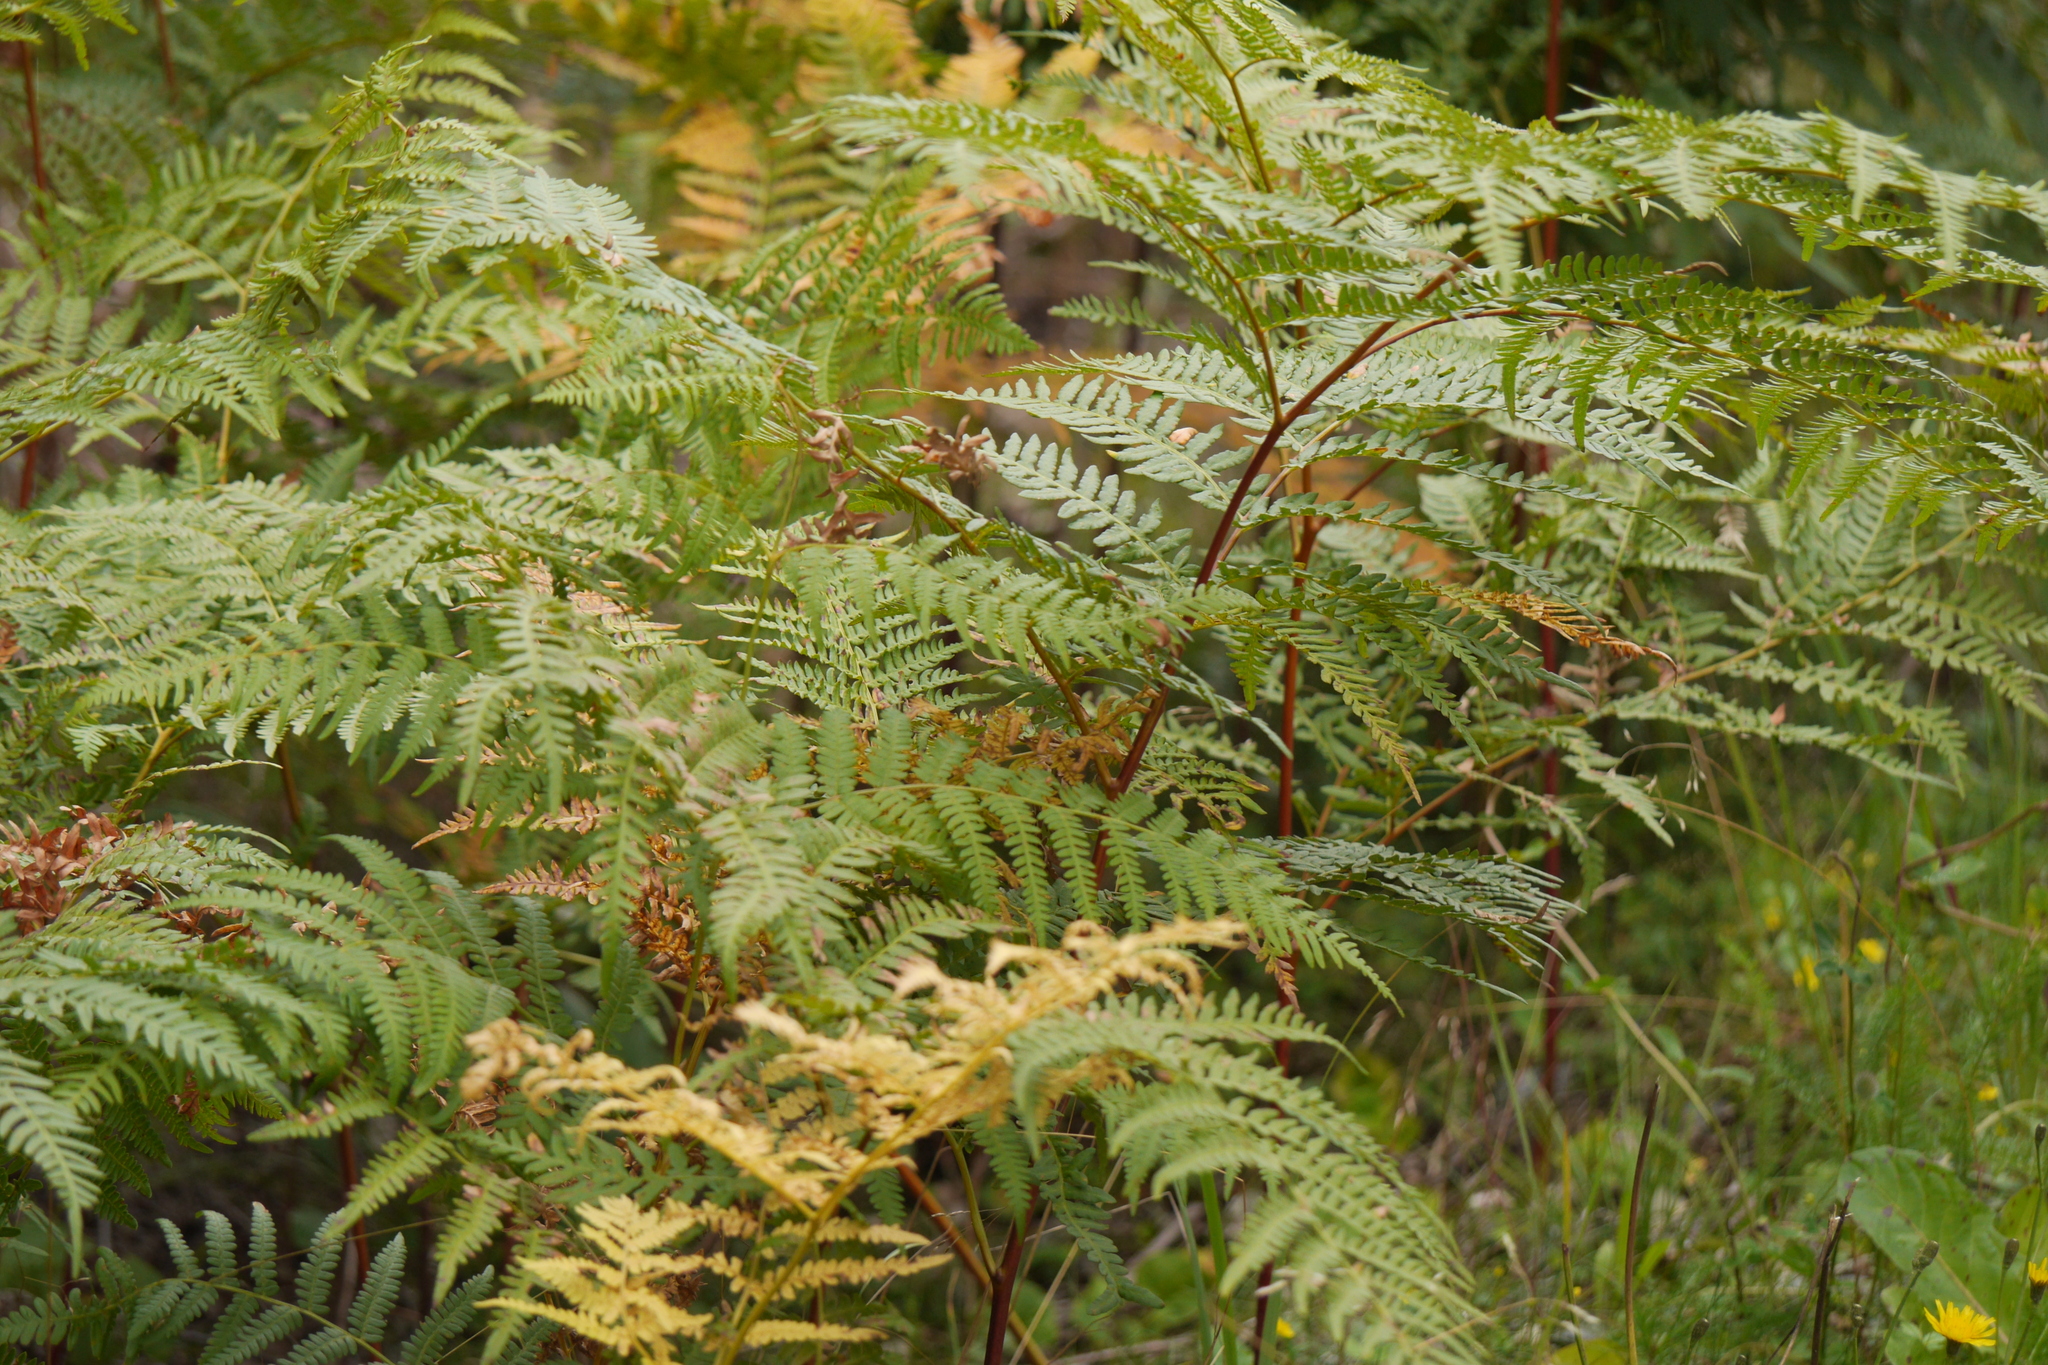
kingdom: Plantae
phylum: Tracheophyta
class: Polypodiopsida
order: Polypodiales
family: Dennstaedtiaceae
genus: Pteridium
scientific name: Pteridium aquilinum
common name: Bracken
